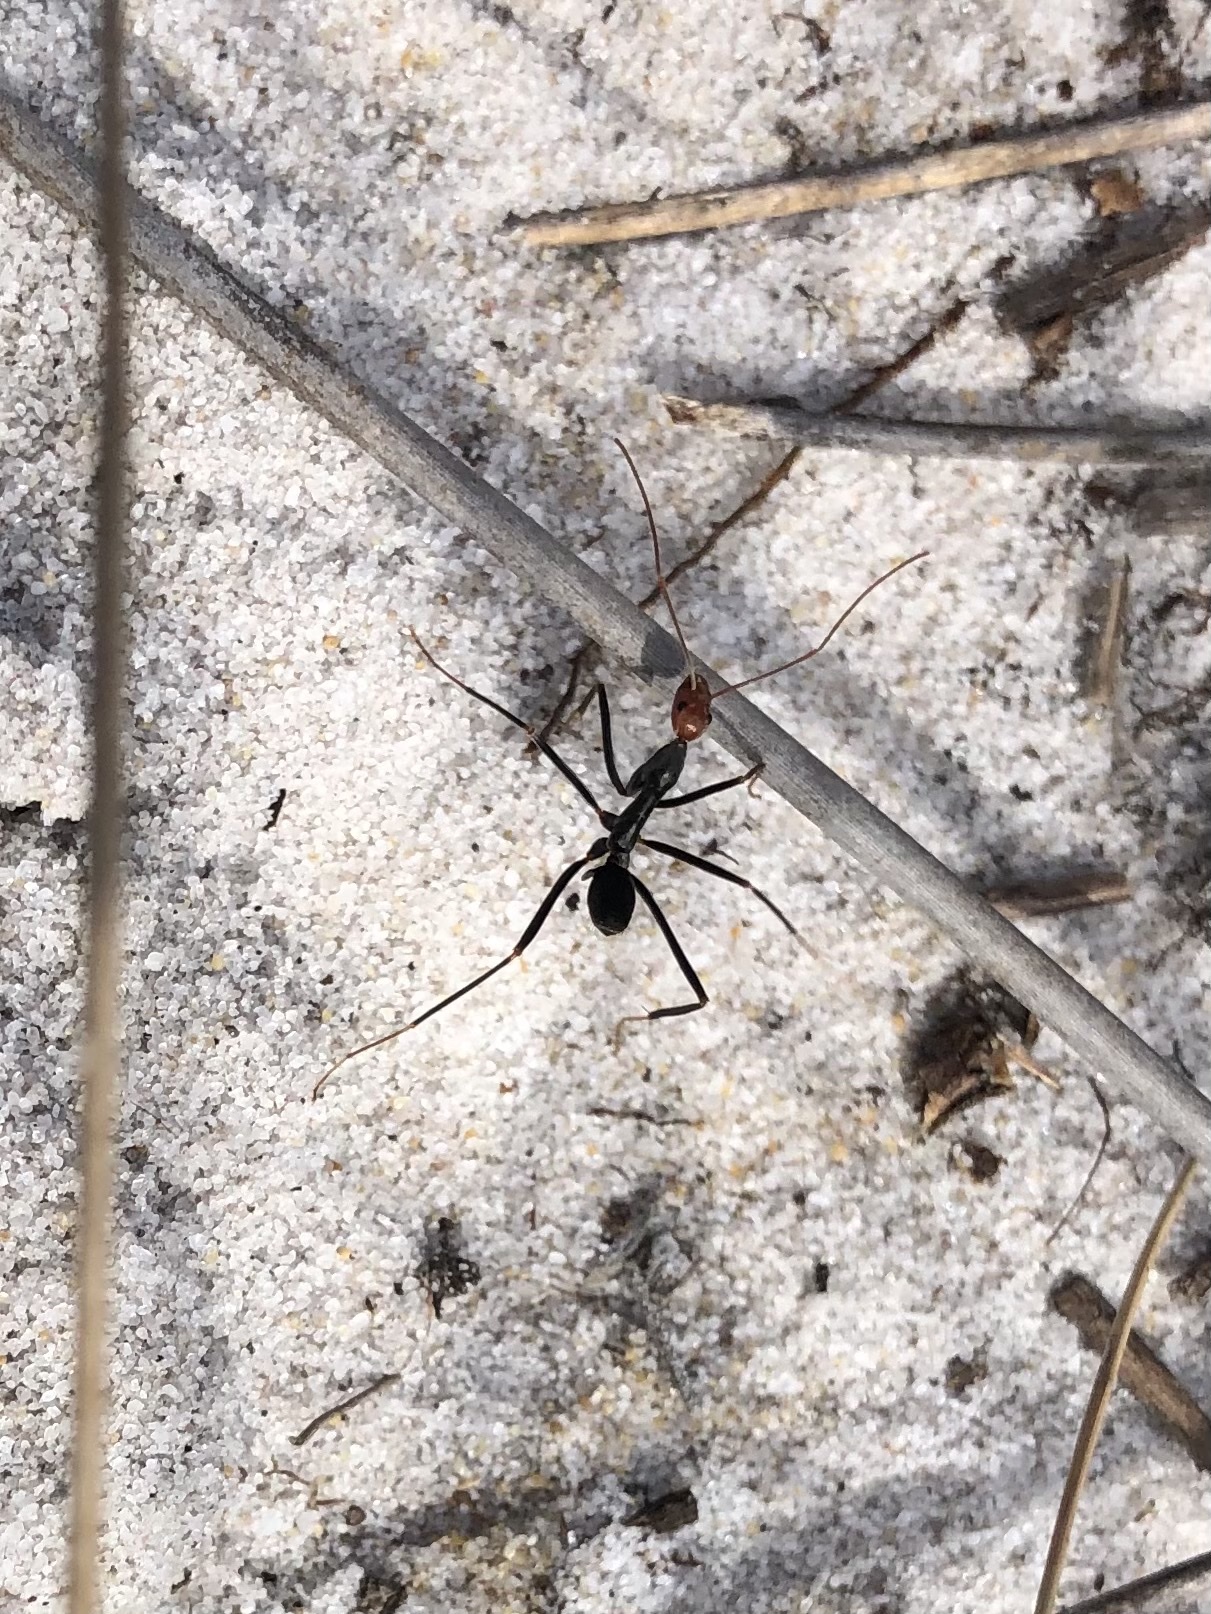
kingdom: Animalia
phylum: Arthropoda
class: Insecta
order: Hymenoptera
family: Formicidae
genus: Leptomyrmex
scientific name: Leptomyrmex erythrocephalus
